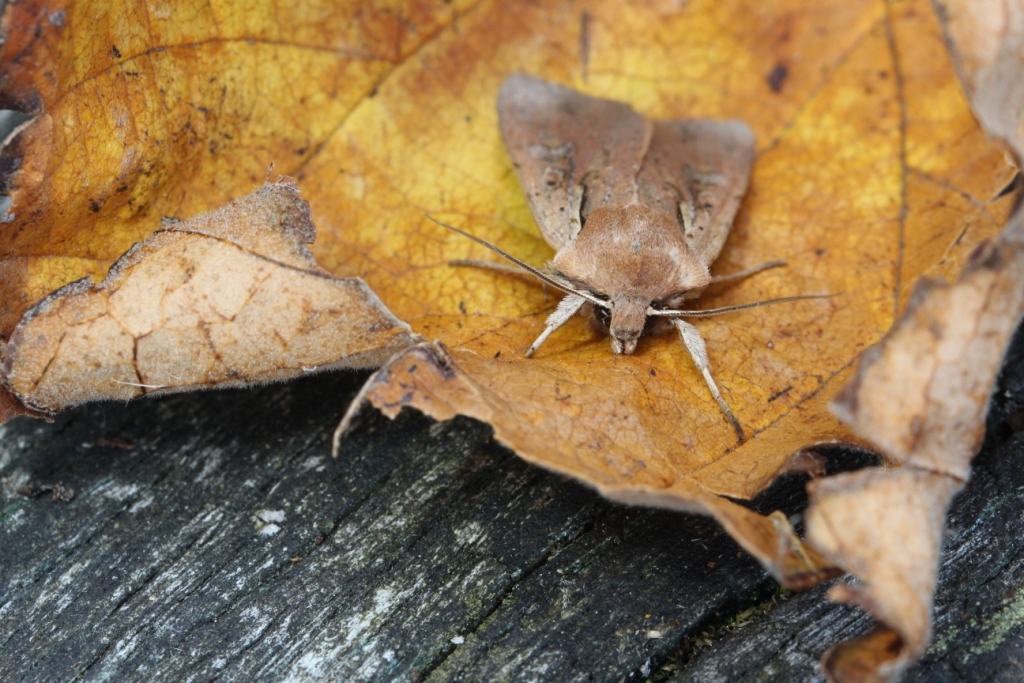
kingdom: Animalia
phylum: Arthropoda
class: Insecta
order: Lepidoptera
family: Noctuidae
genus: Ichneutica
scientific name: Ichneutica atristriga
